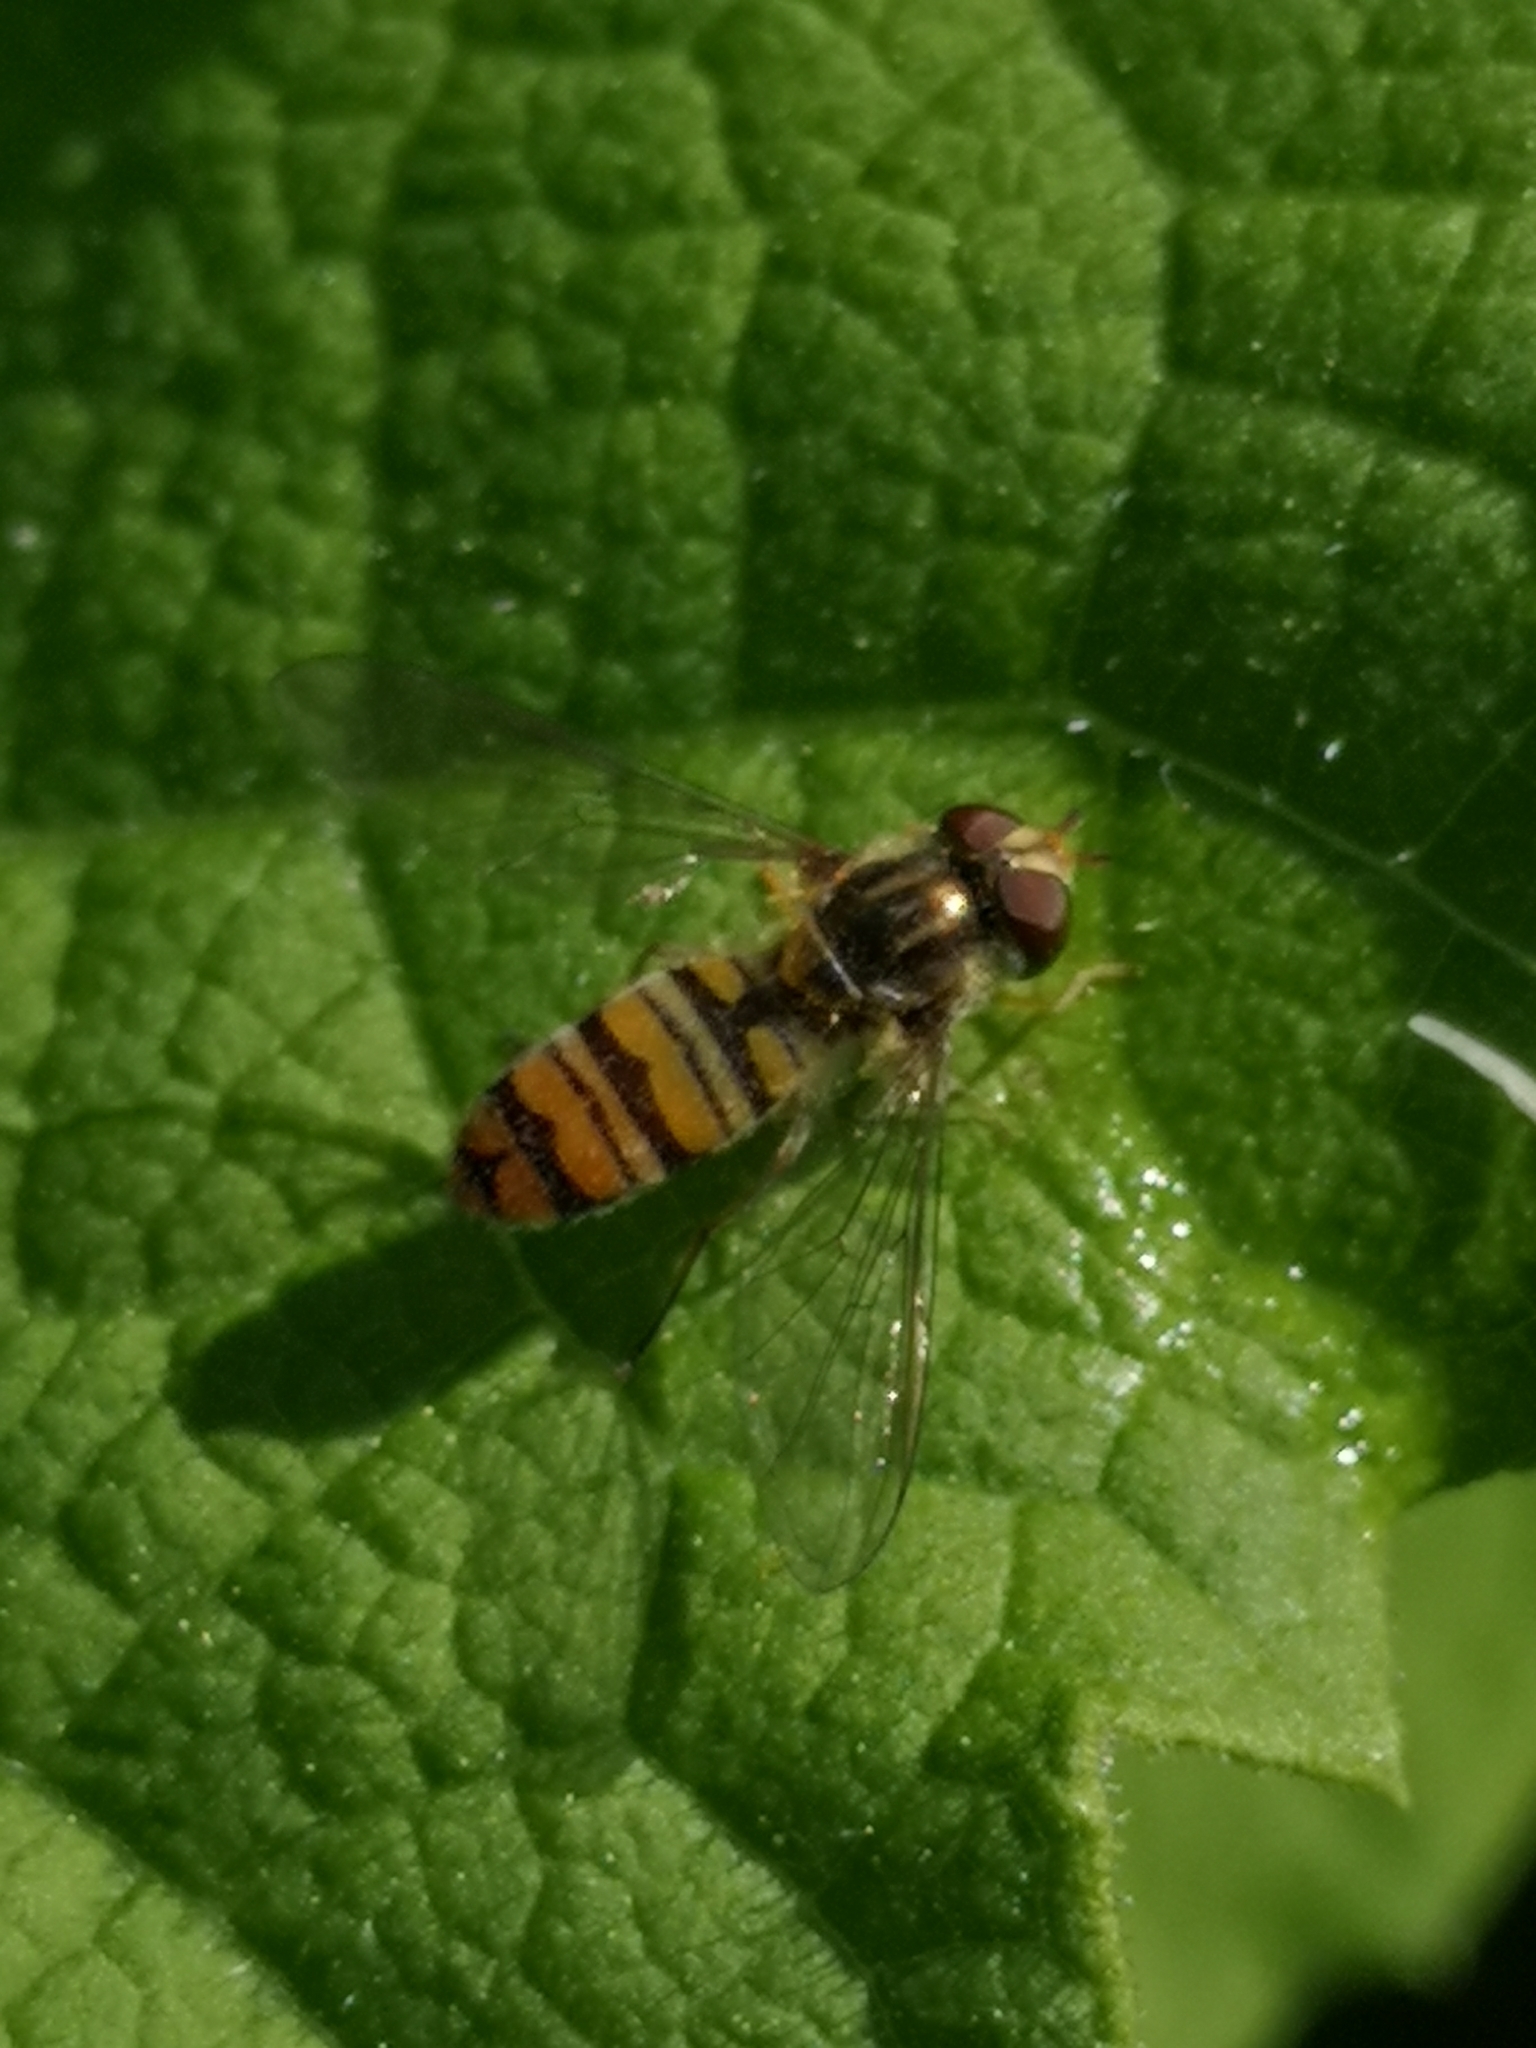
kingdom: Animalia
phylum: Arthropoda
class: Insecta
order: Diptera
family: Syrphidae
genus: Episyrphus
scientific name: Episyrphus balteatus
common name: Marmalade hoverfly
